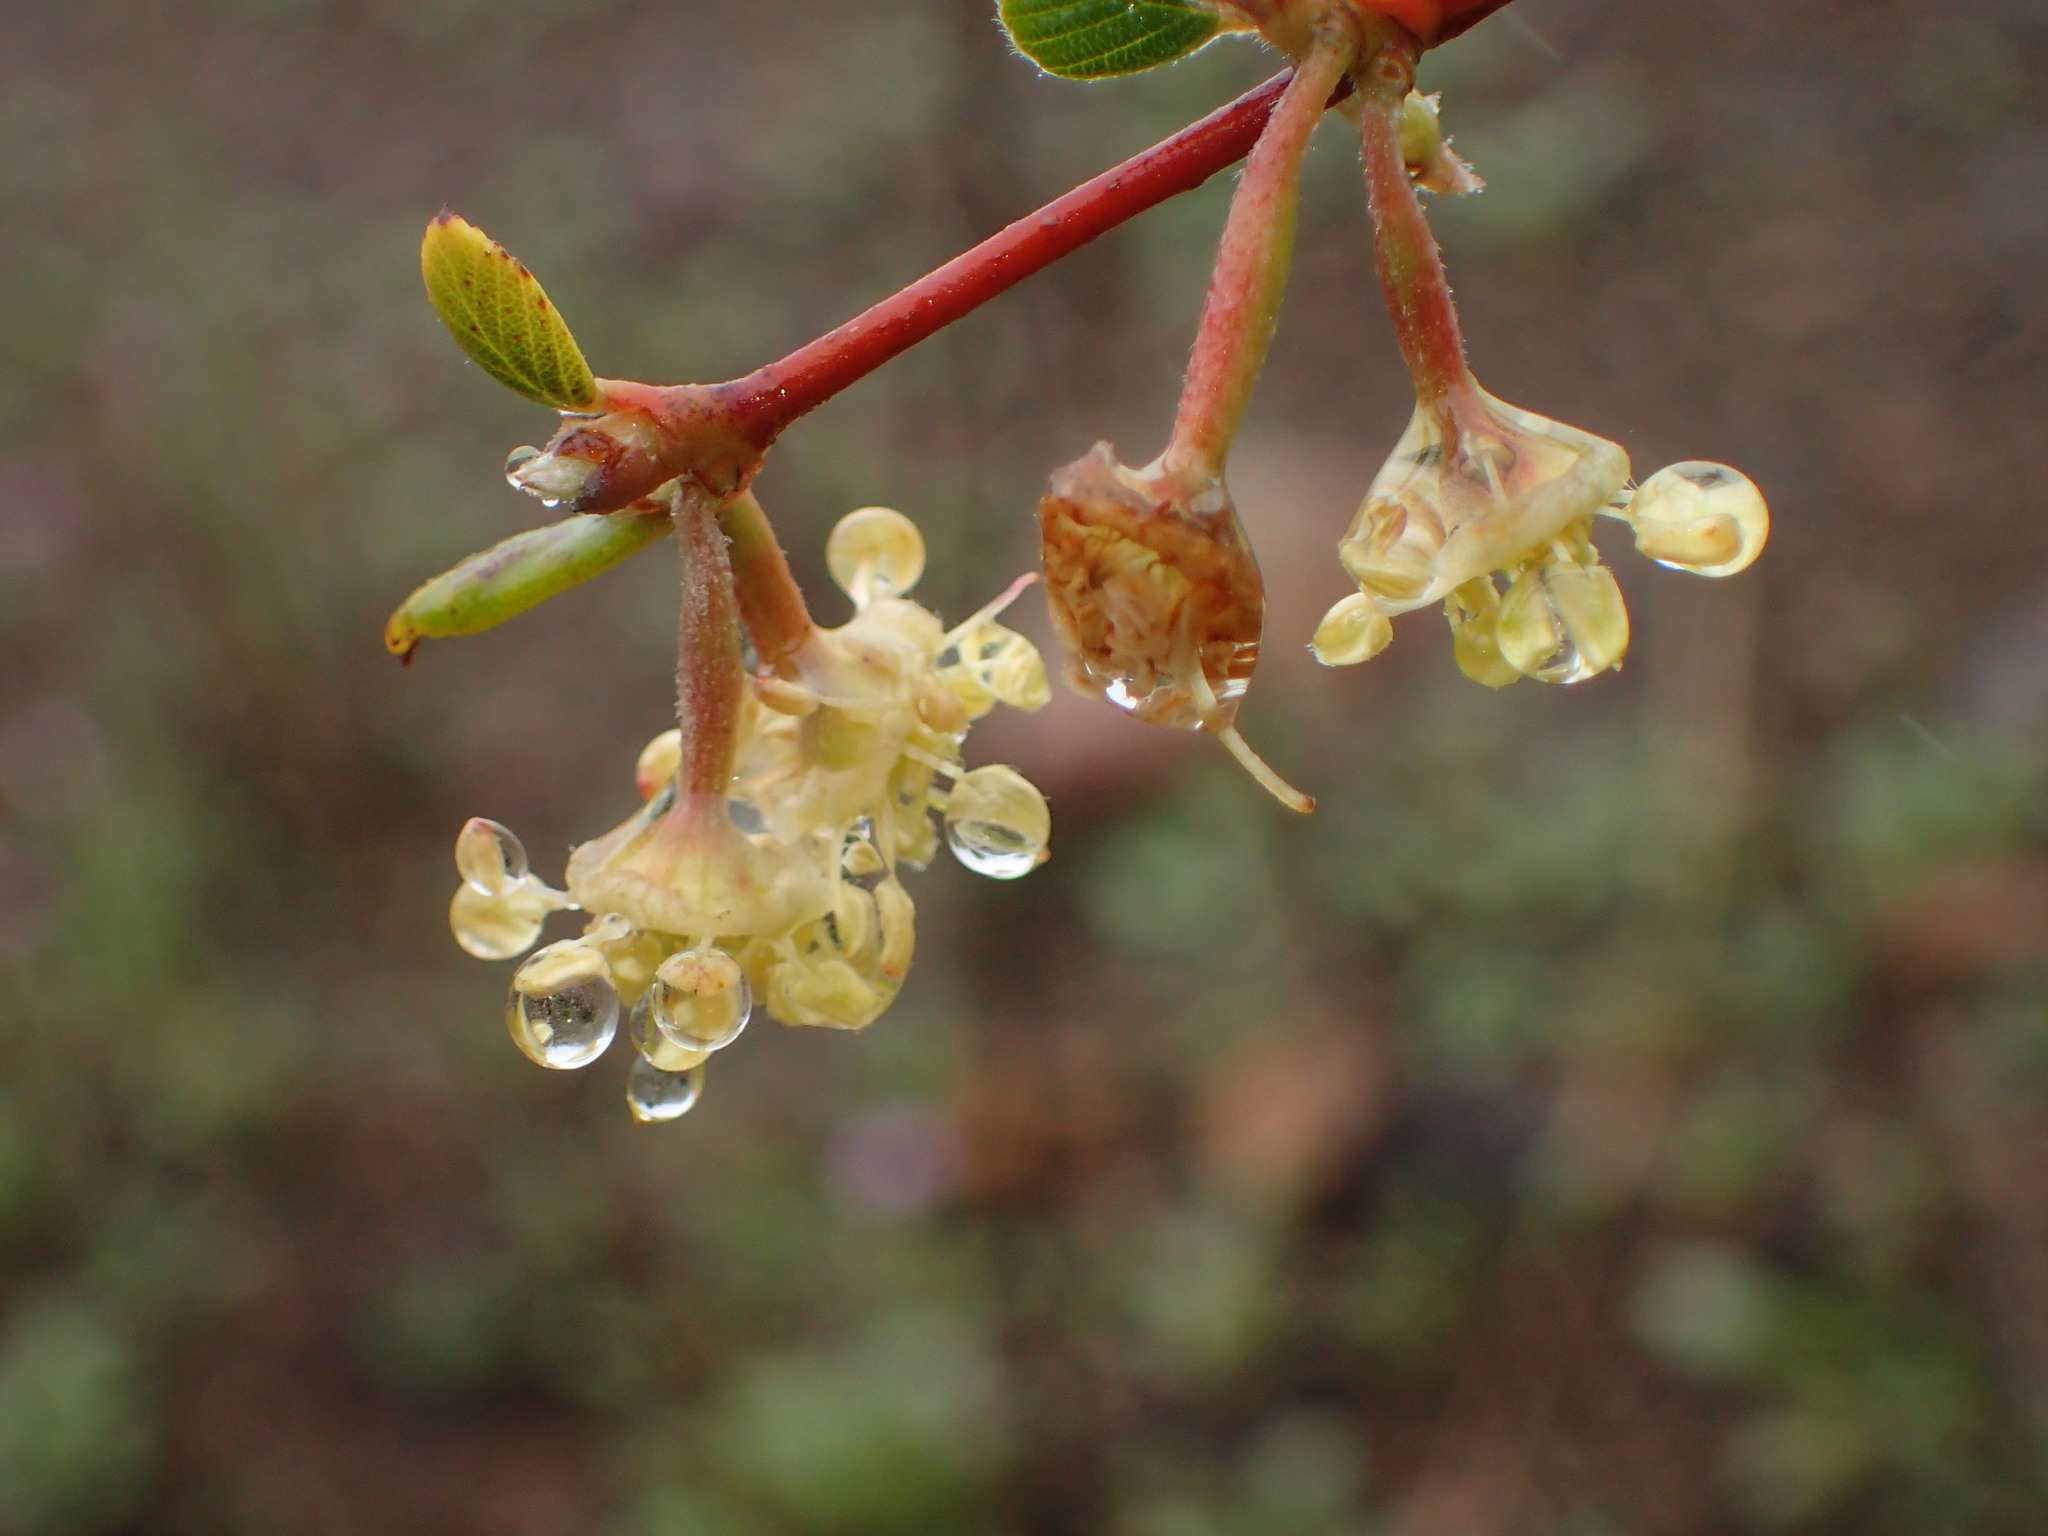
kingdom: Plantae
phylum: Tracheophyta
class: Magnoliopsida
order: Rosales
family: Rosaceae
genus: Cercocarpus
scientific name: Cercocarpus betuloides
